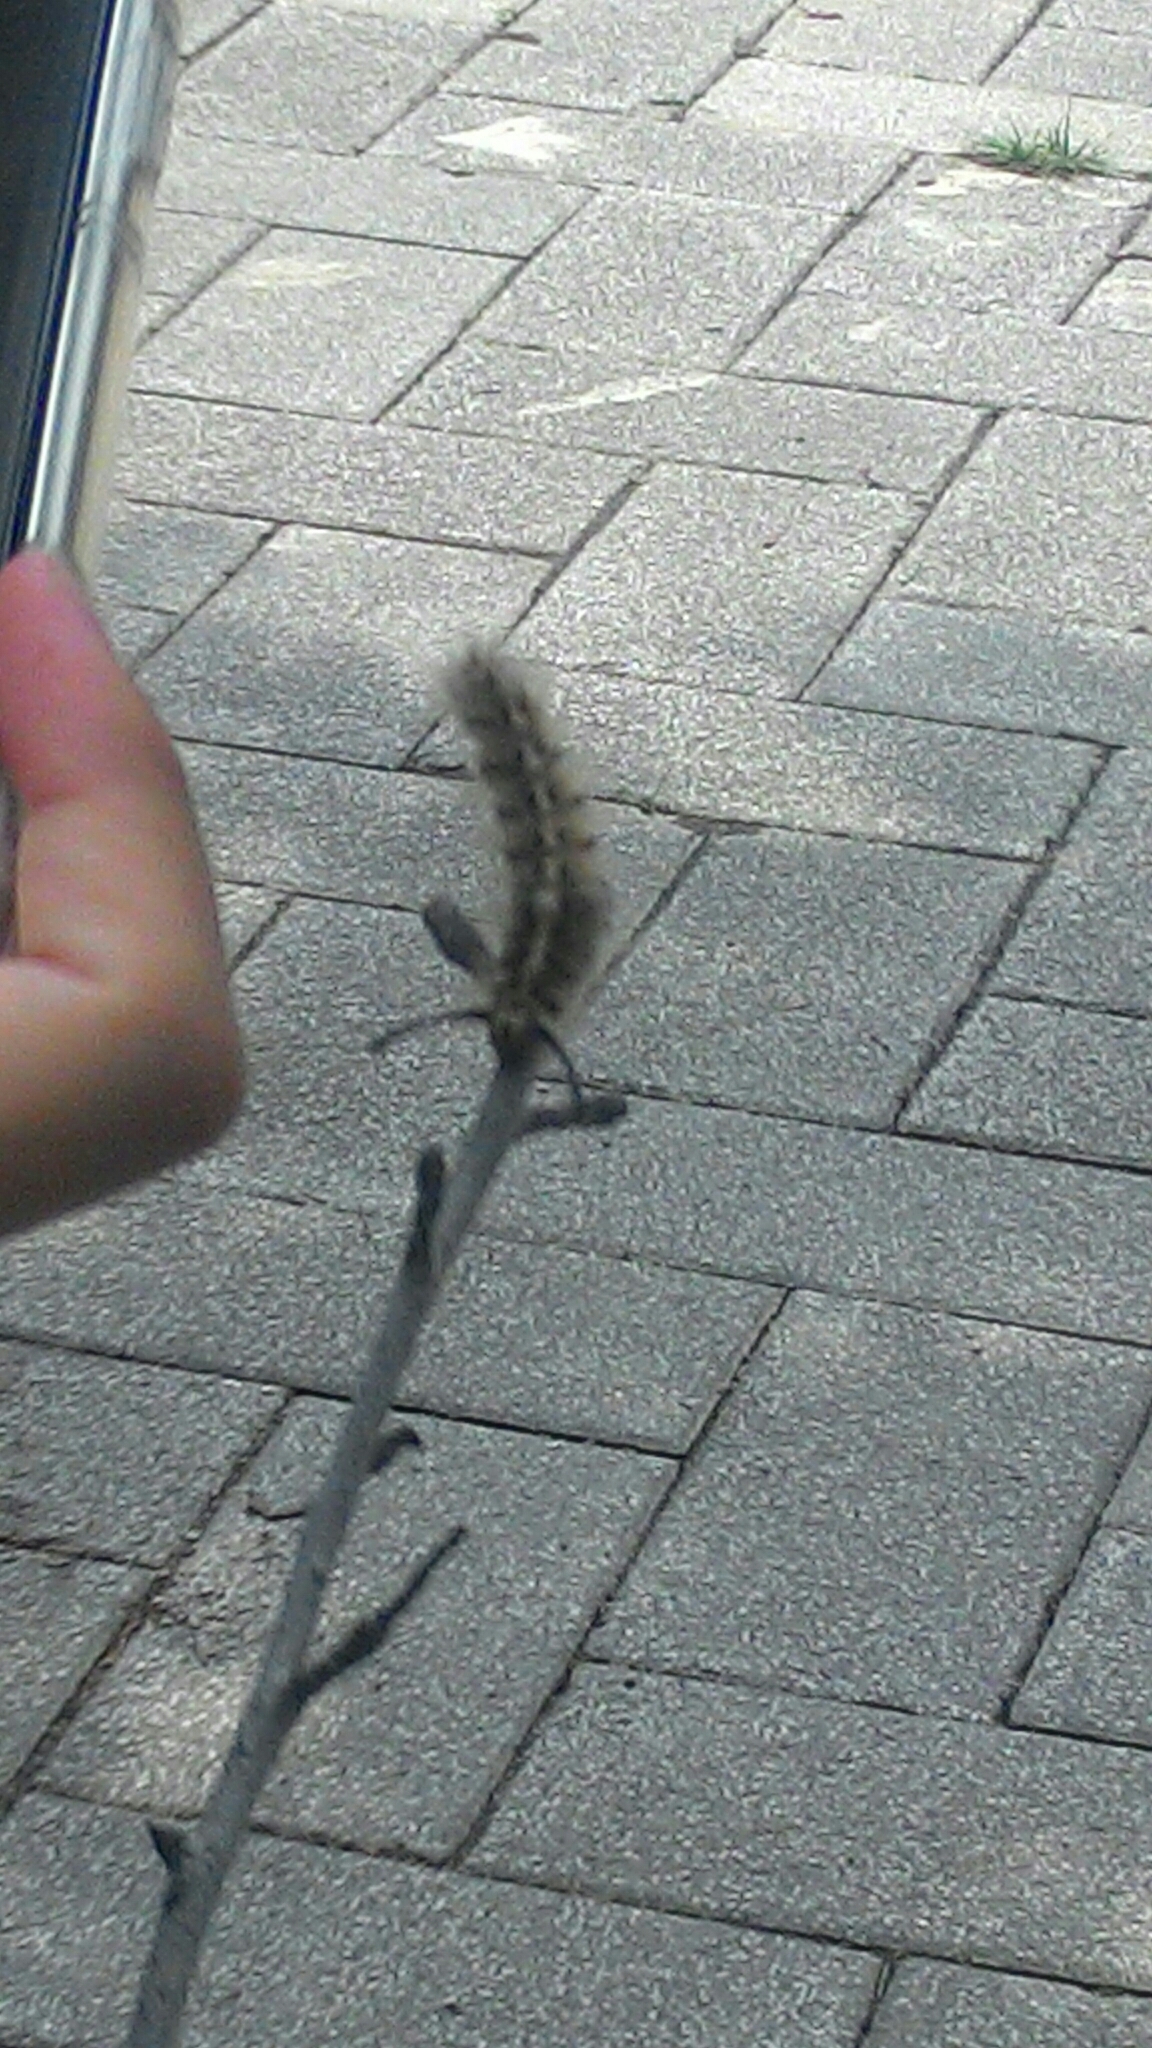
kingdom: Animalia
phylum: Arthropoda
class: Insecta
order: Lepidoptera
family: Lasiocampidae
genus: Trabala
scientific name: Trabala vishnou
